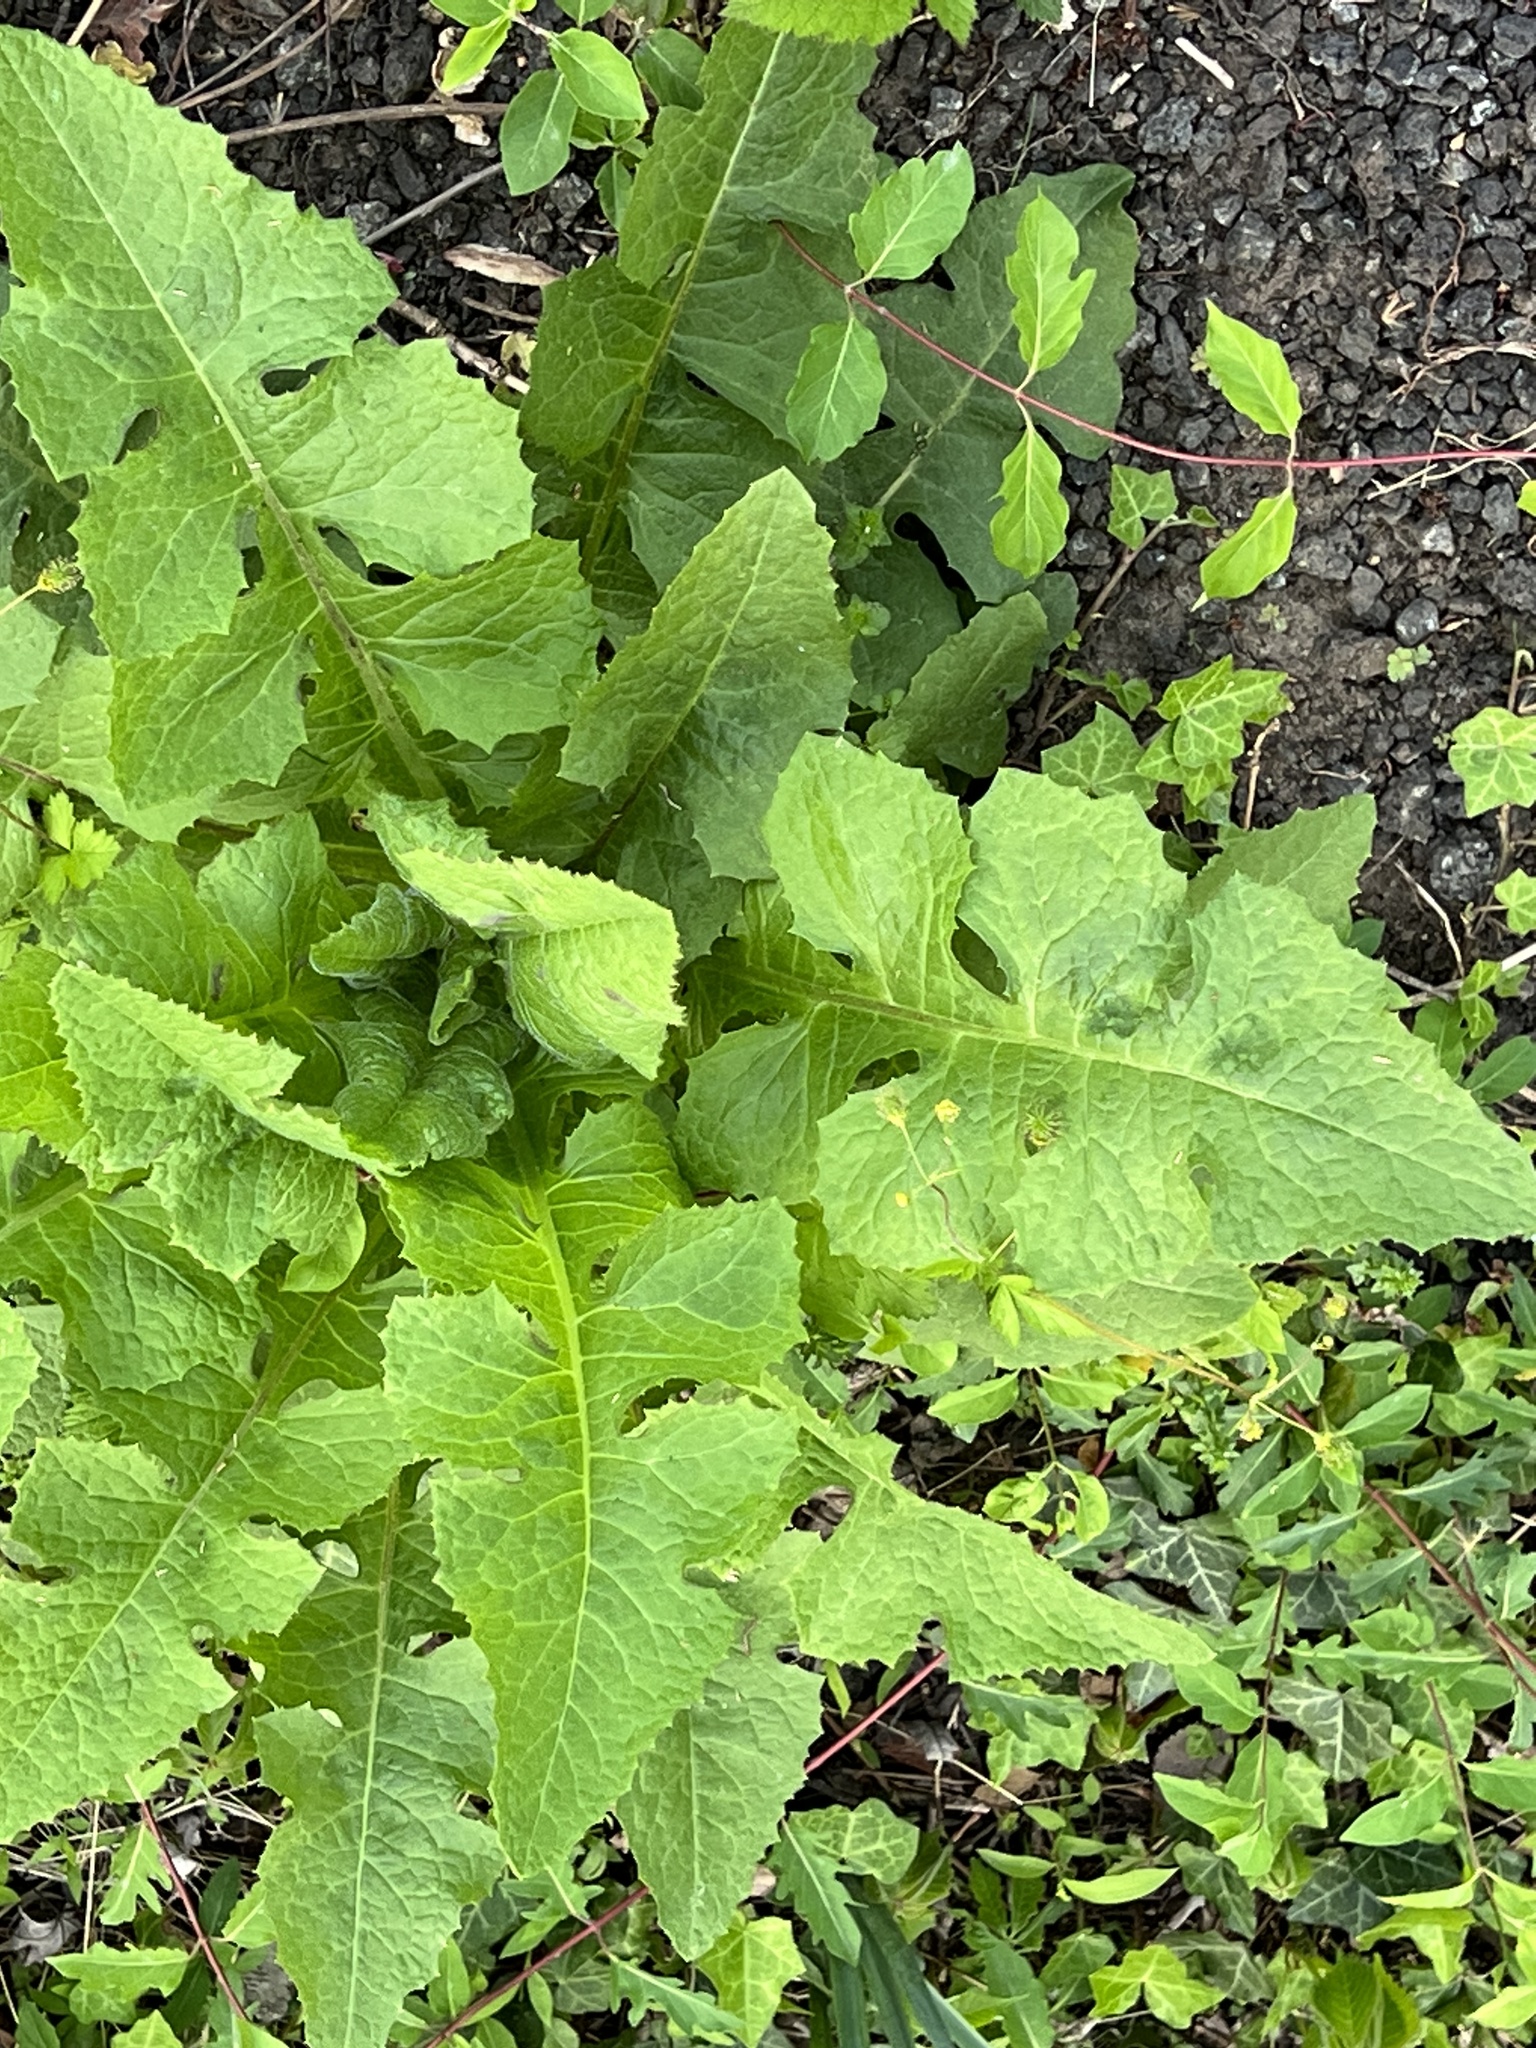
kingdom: Plantae
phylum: Tracheophyta
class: Magnoliopsida
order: Asterales
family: Asteraceae
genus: Lactuca
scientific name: Lactuca biennis
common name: Blue wood lettuce
